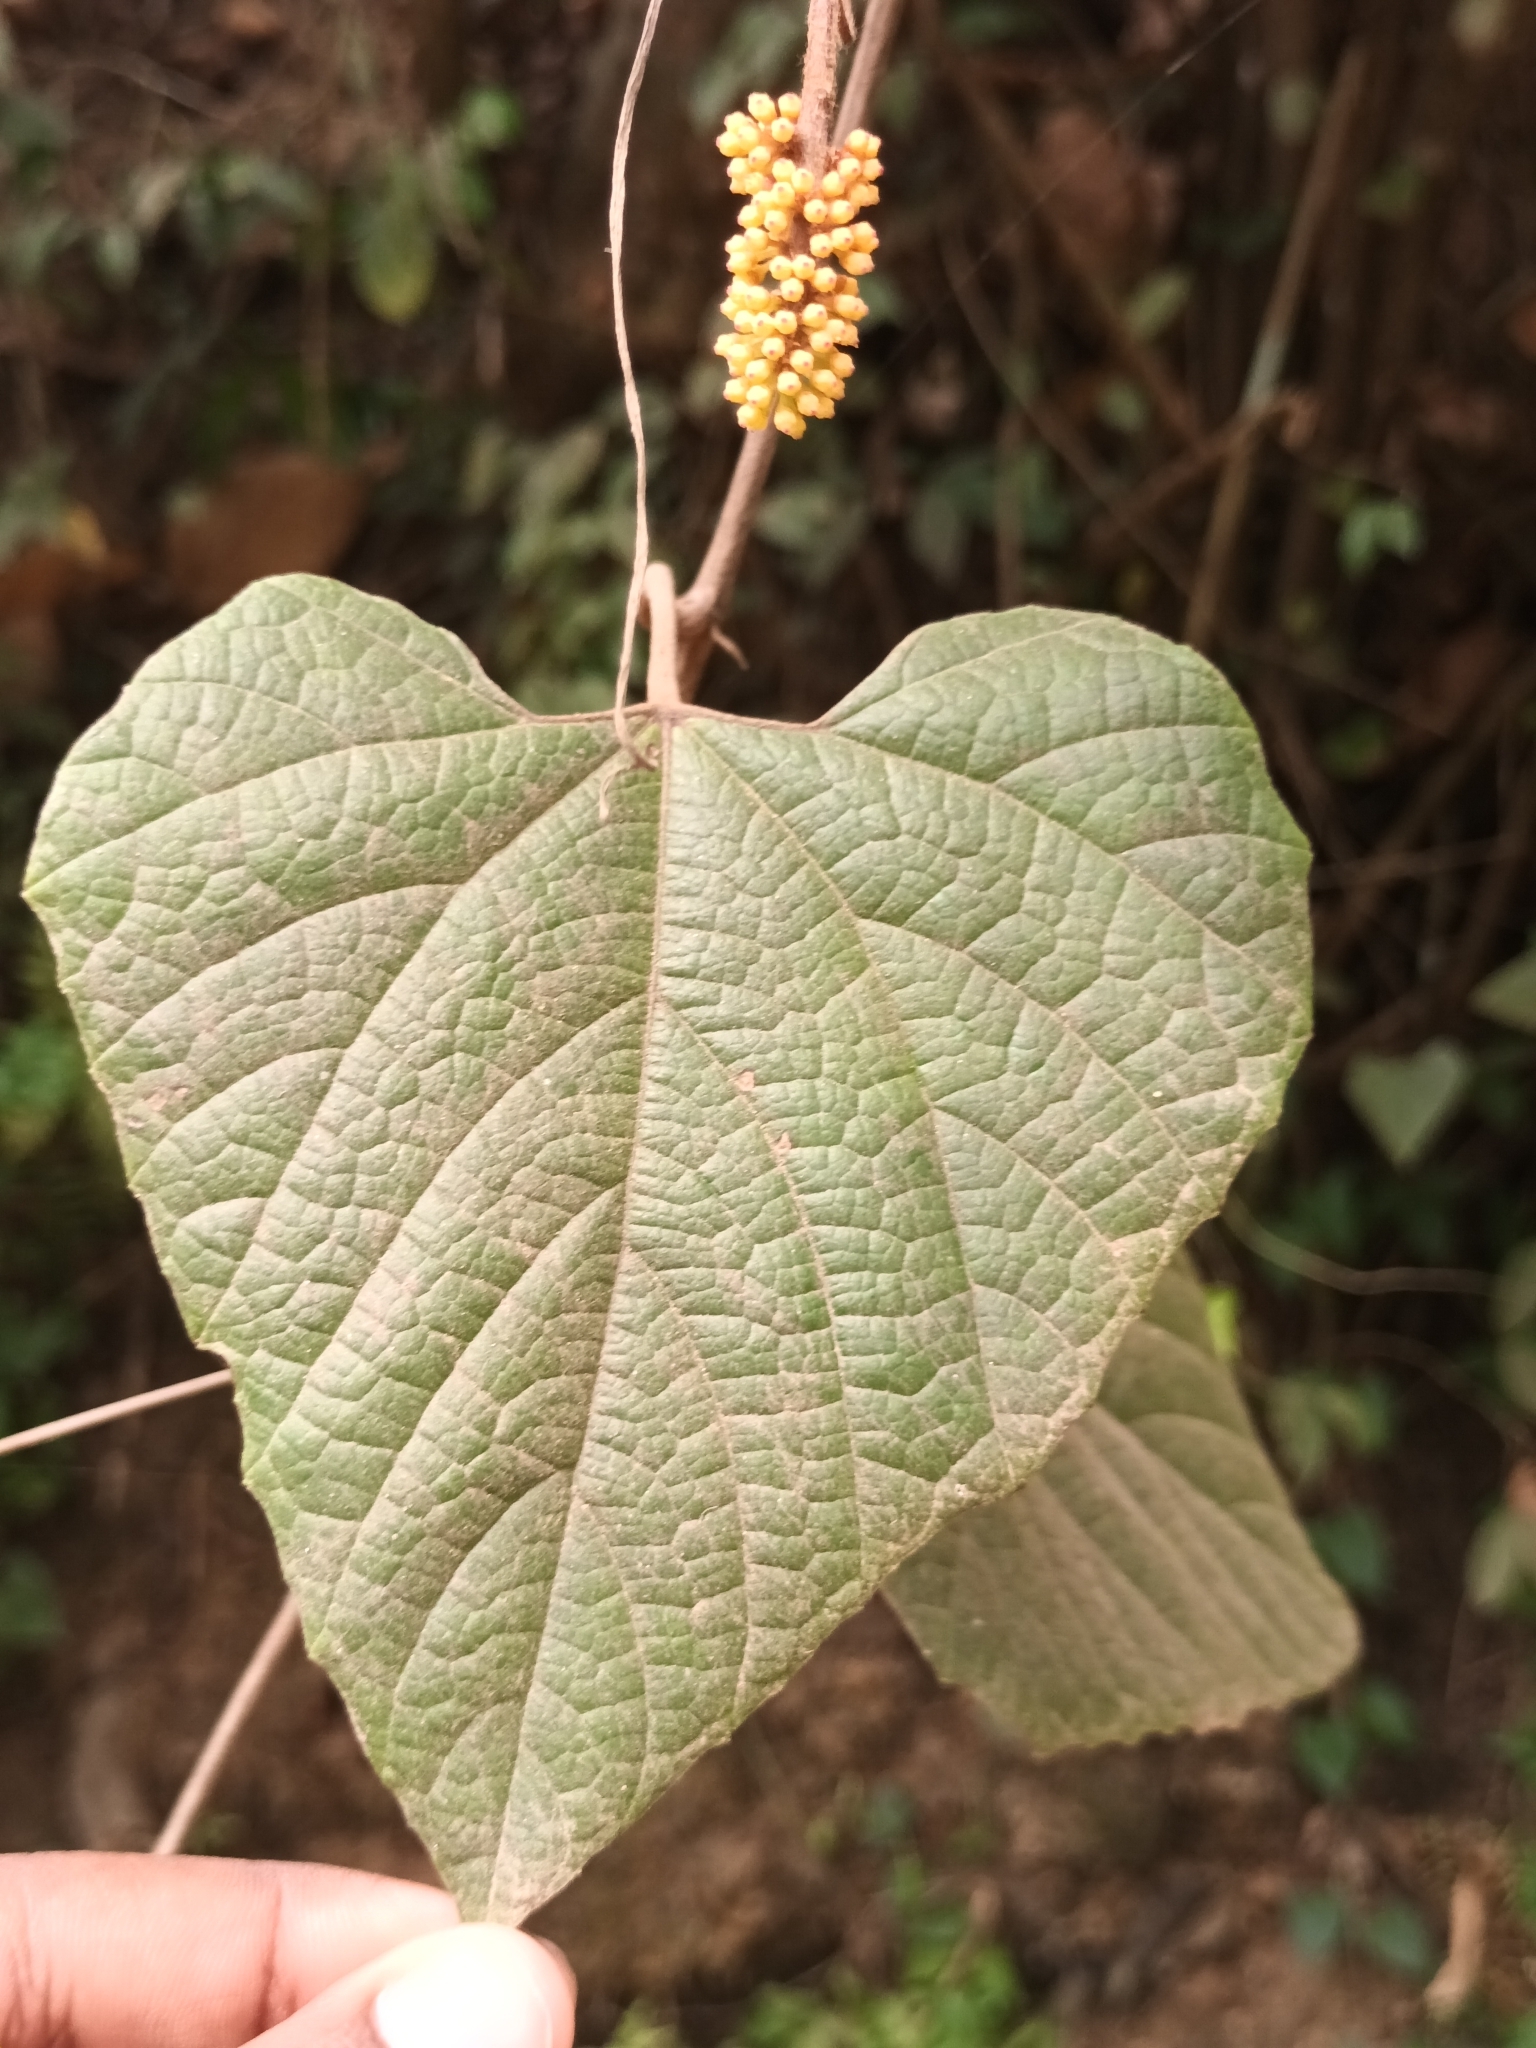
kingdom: Plantae
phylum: Tracheophyta
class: Magnoliopsida
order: Vitales
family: Vitaceae
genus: Ampelocissus
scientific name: Ampelocissus indica
